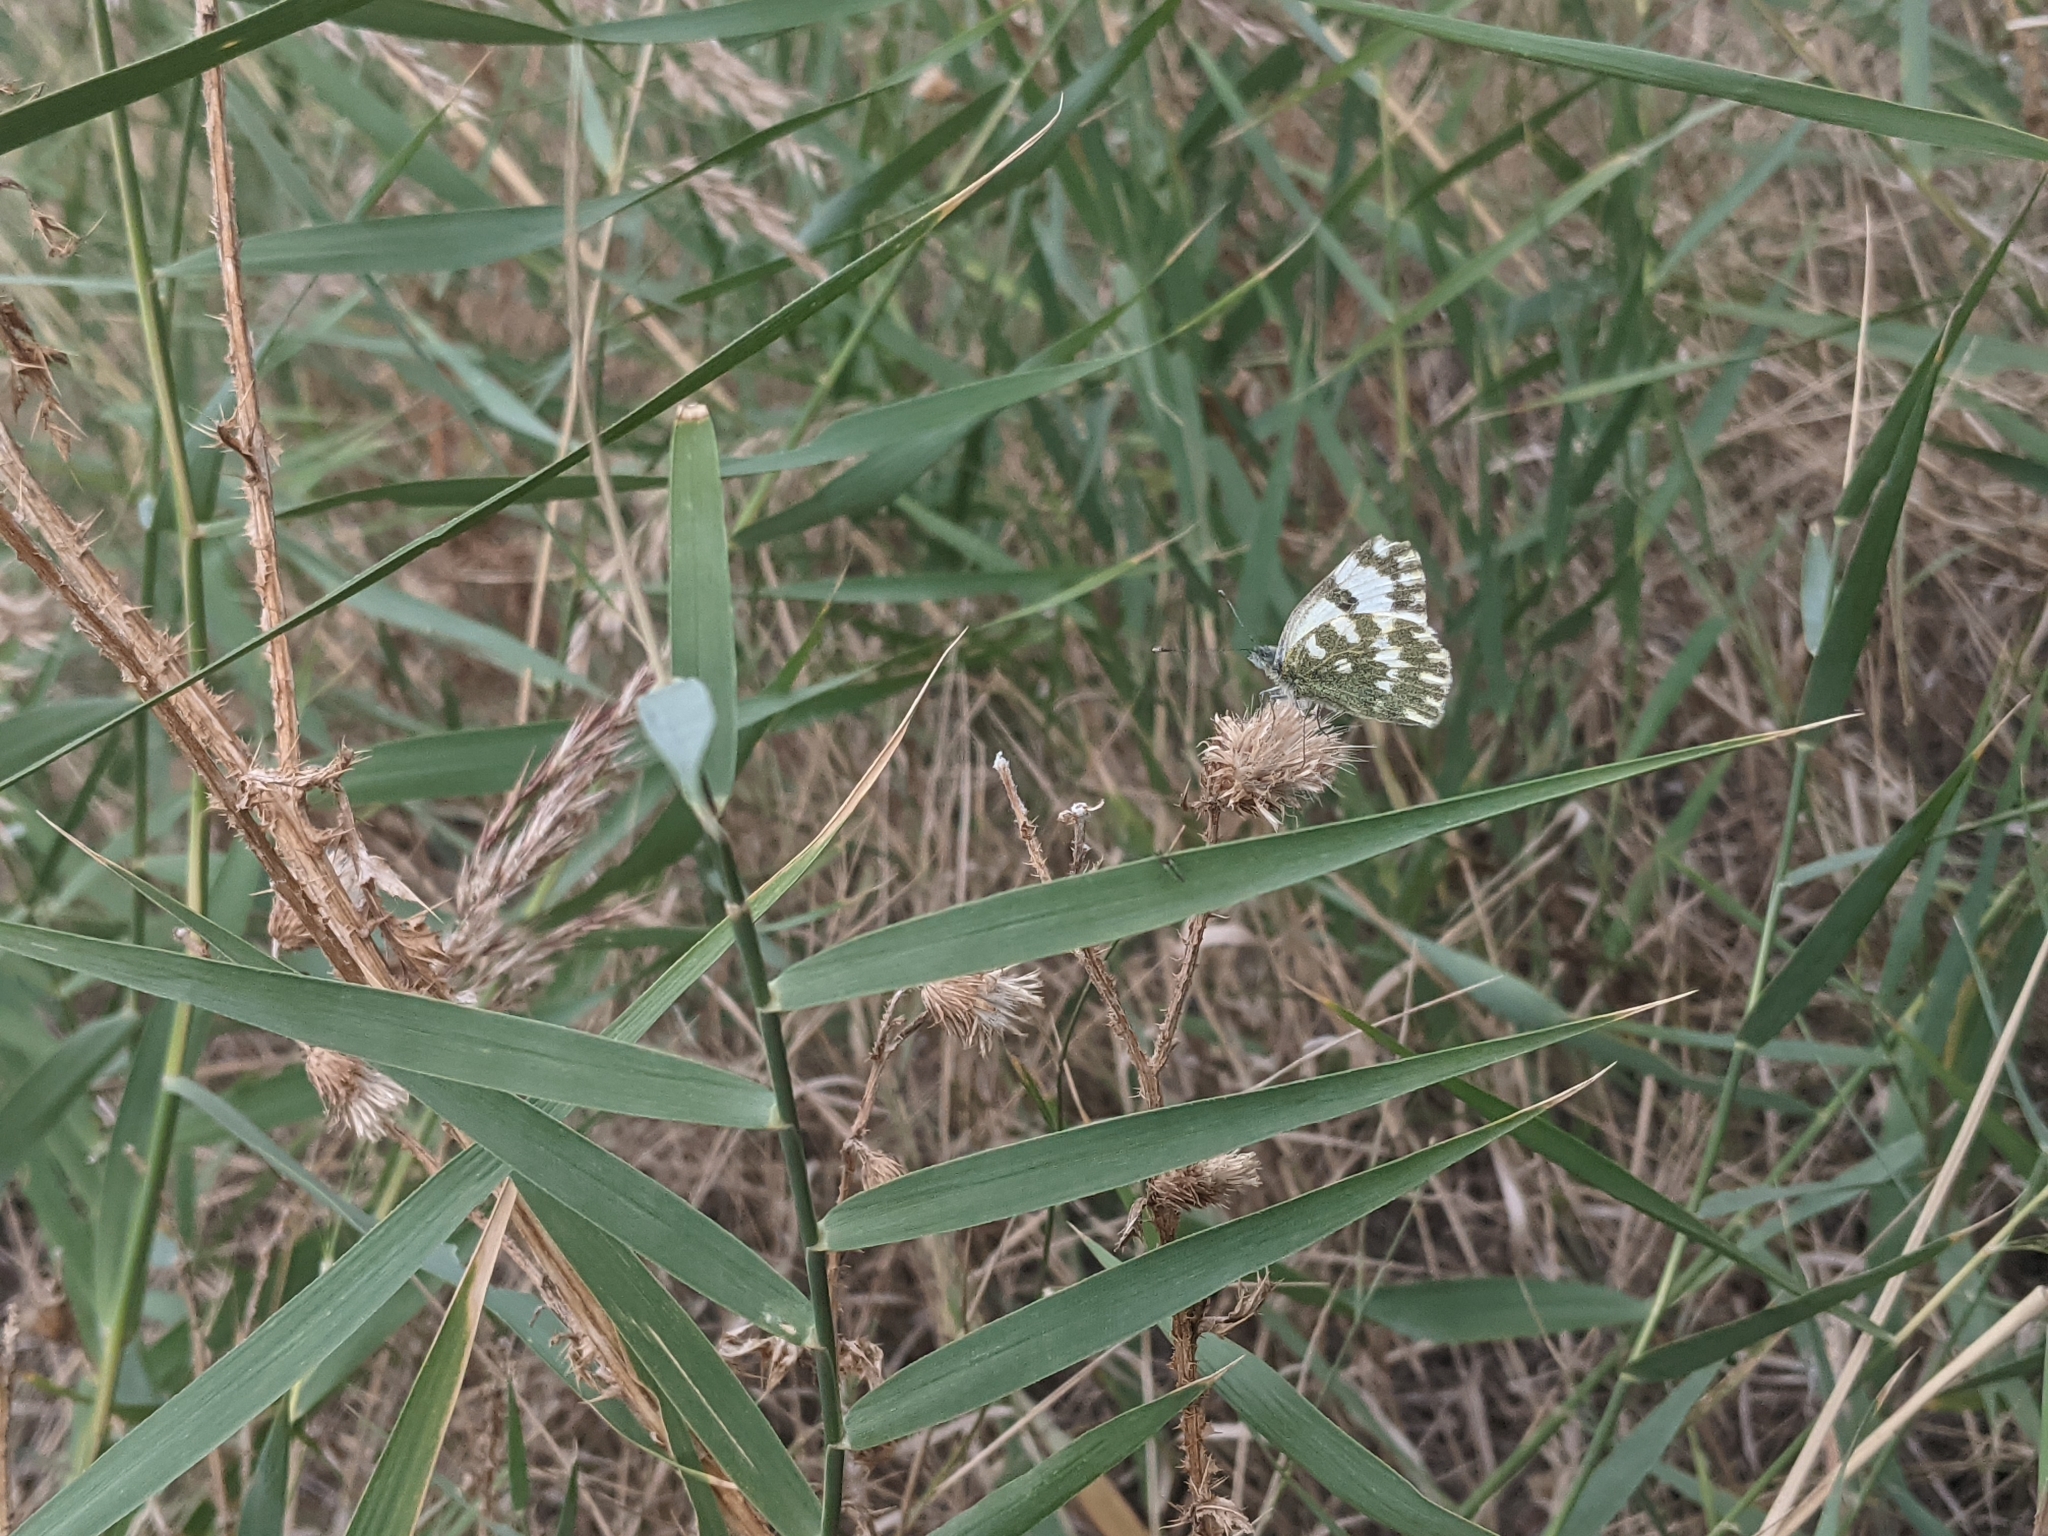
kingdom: Animalia
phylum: Arthropoda
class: Insecta
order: Lepidoptera
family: Pieridae
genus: Pontia
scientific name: Pontia edusa
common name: Eastern bath white
